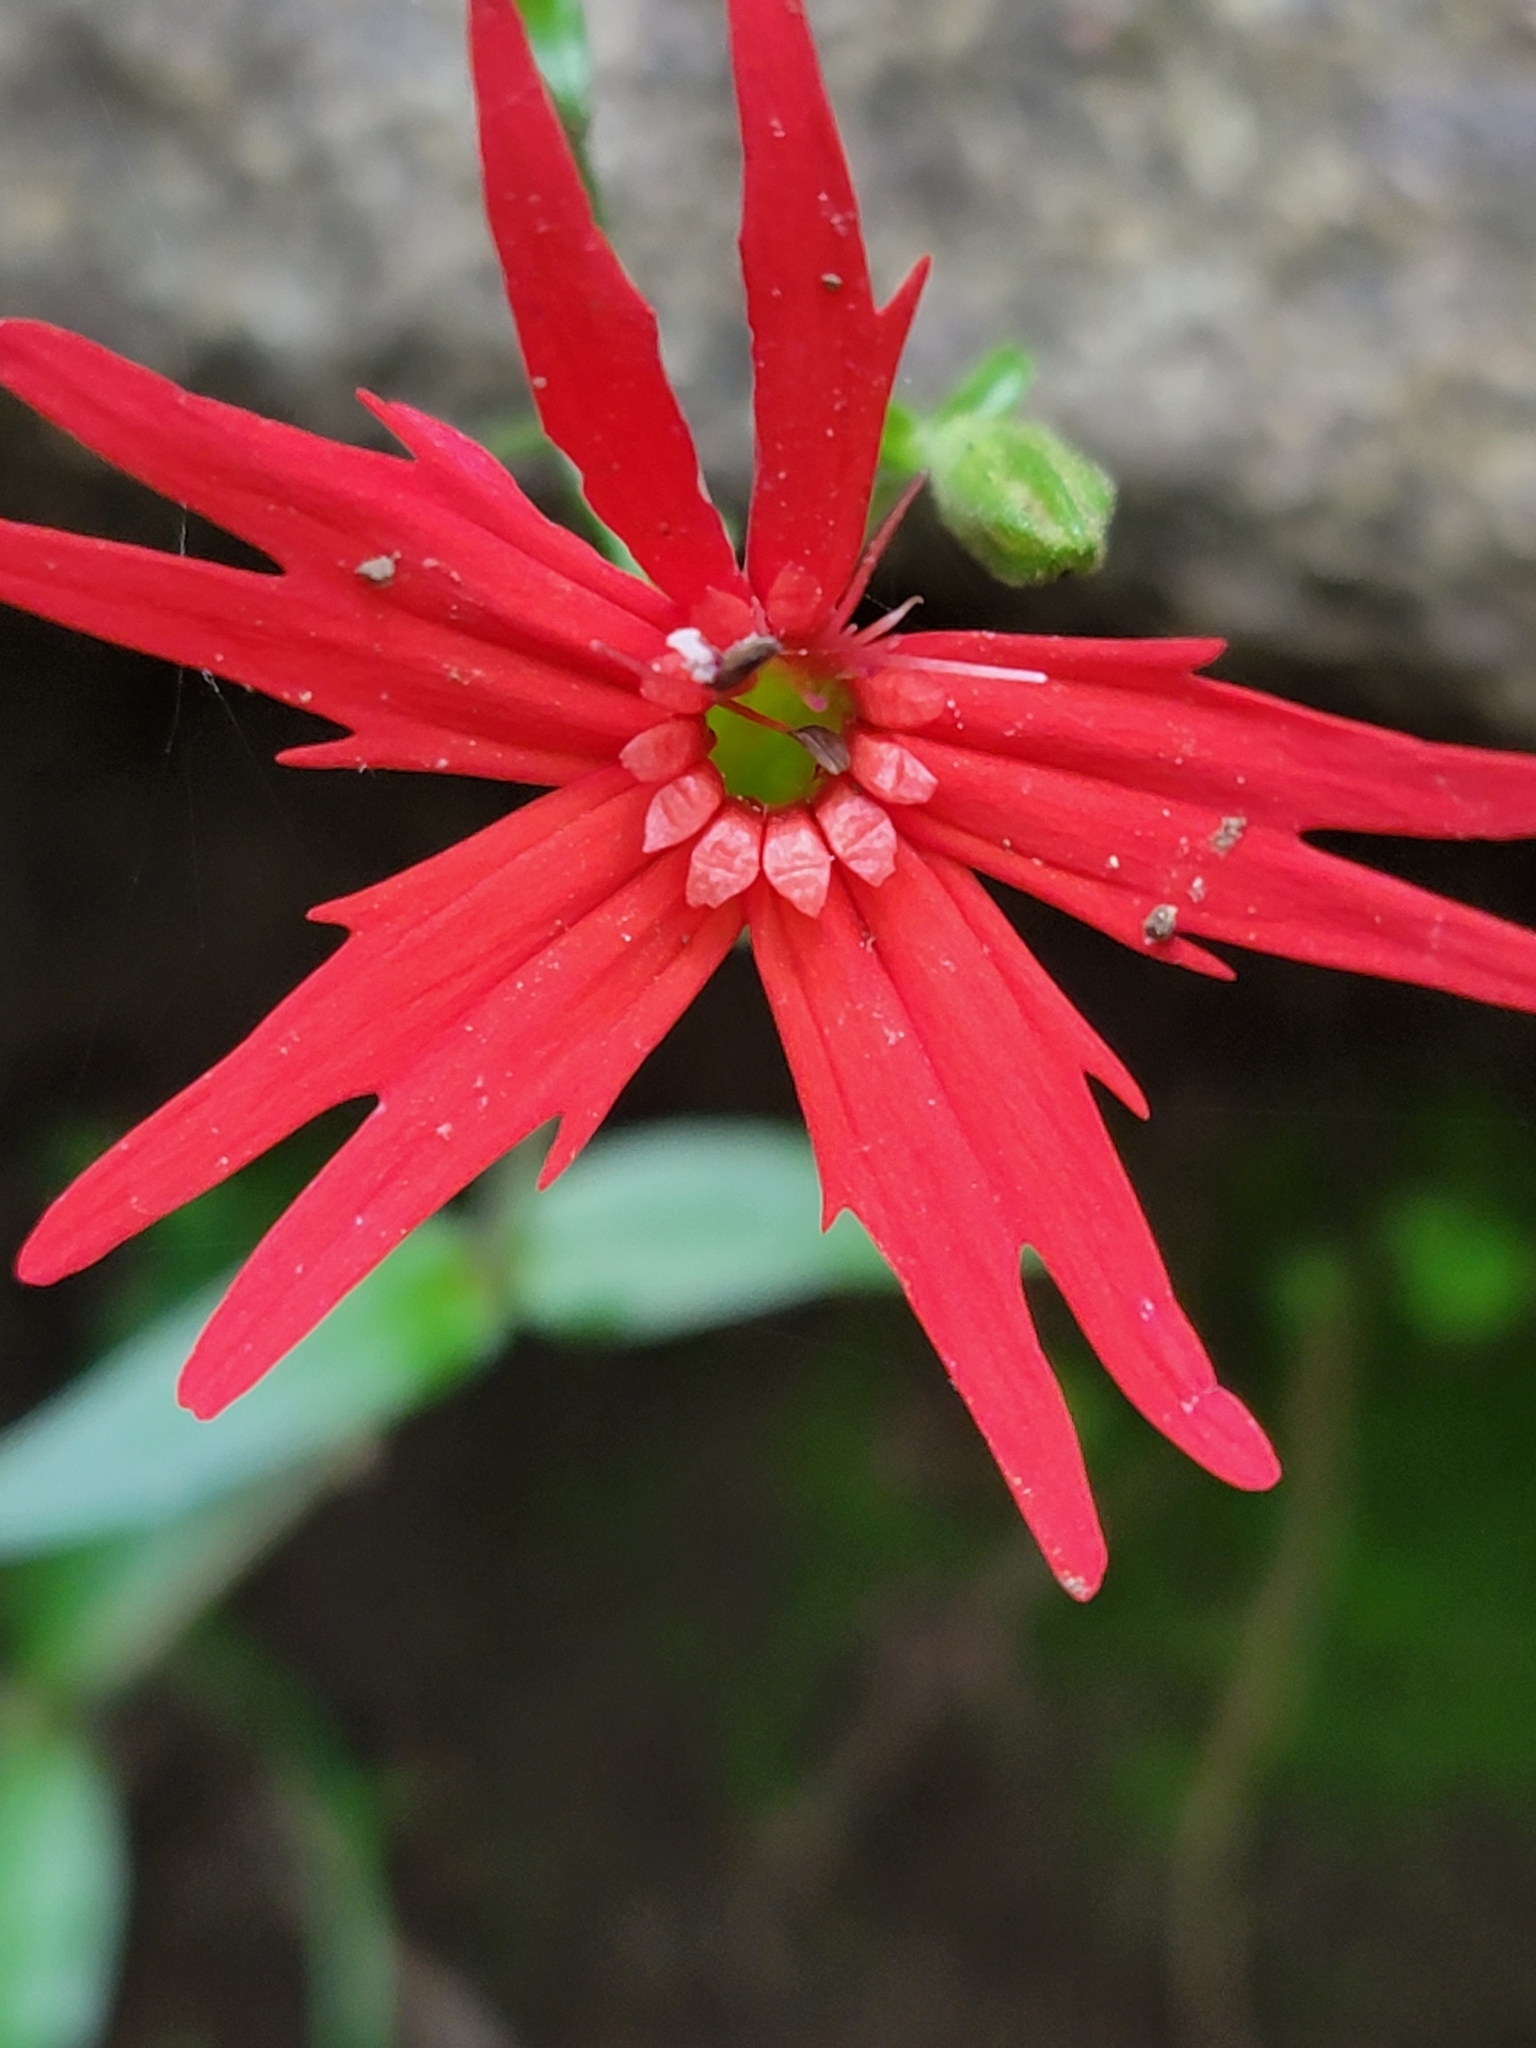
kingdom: Plantae
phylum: Tracheophyta
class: Magnoliopsida
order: Caryophyllales
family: Caryophyllaceae
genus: Silene
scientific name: Silene virginica
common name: Fire-pink
